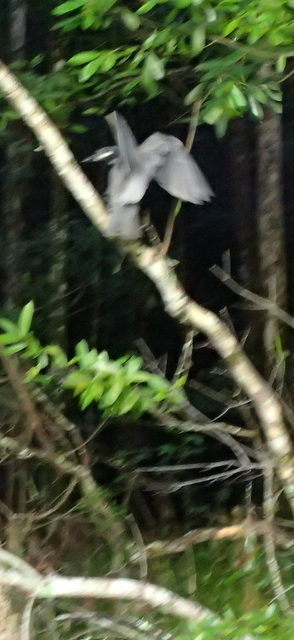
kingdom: Animalia
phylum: Chordata
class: Aves
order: Pelecaniformes
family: Ardeidae
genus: Nyctanassa
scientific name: Nyctanassa violacea
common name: Yellow-crowned night heron
